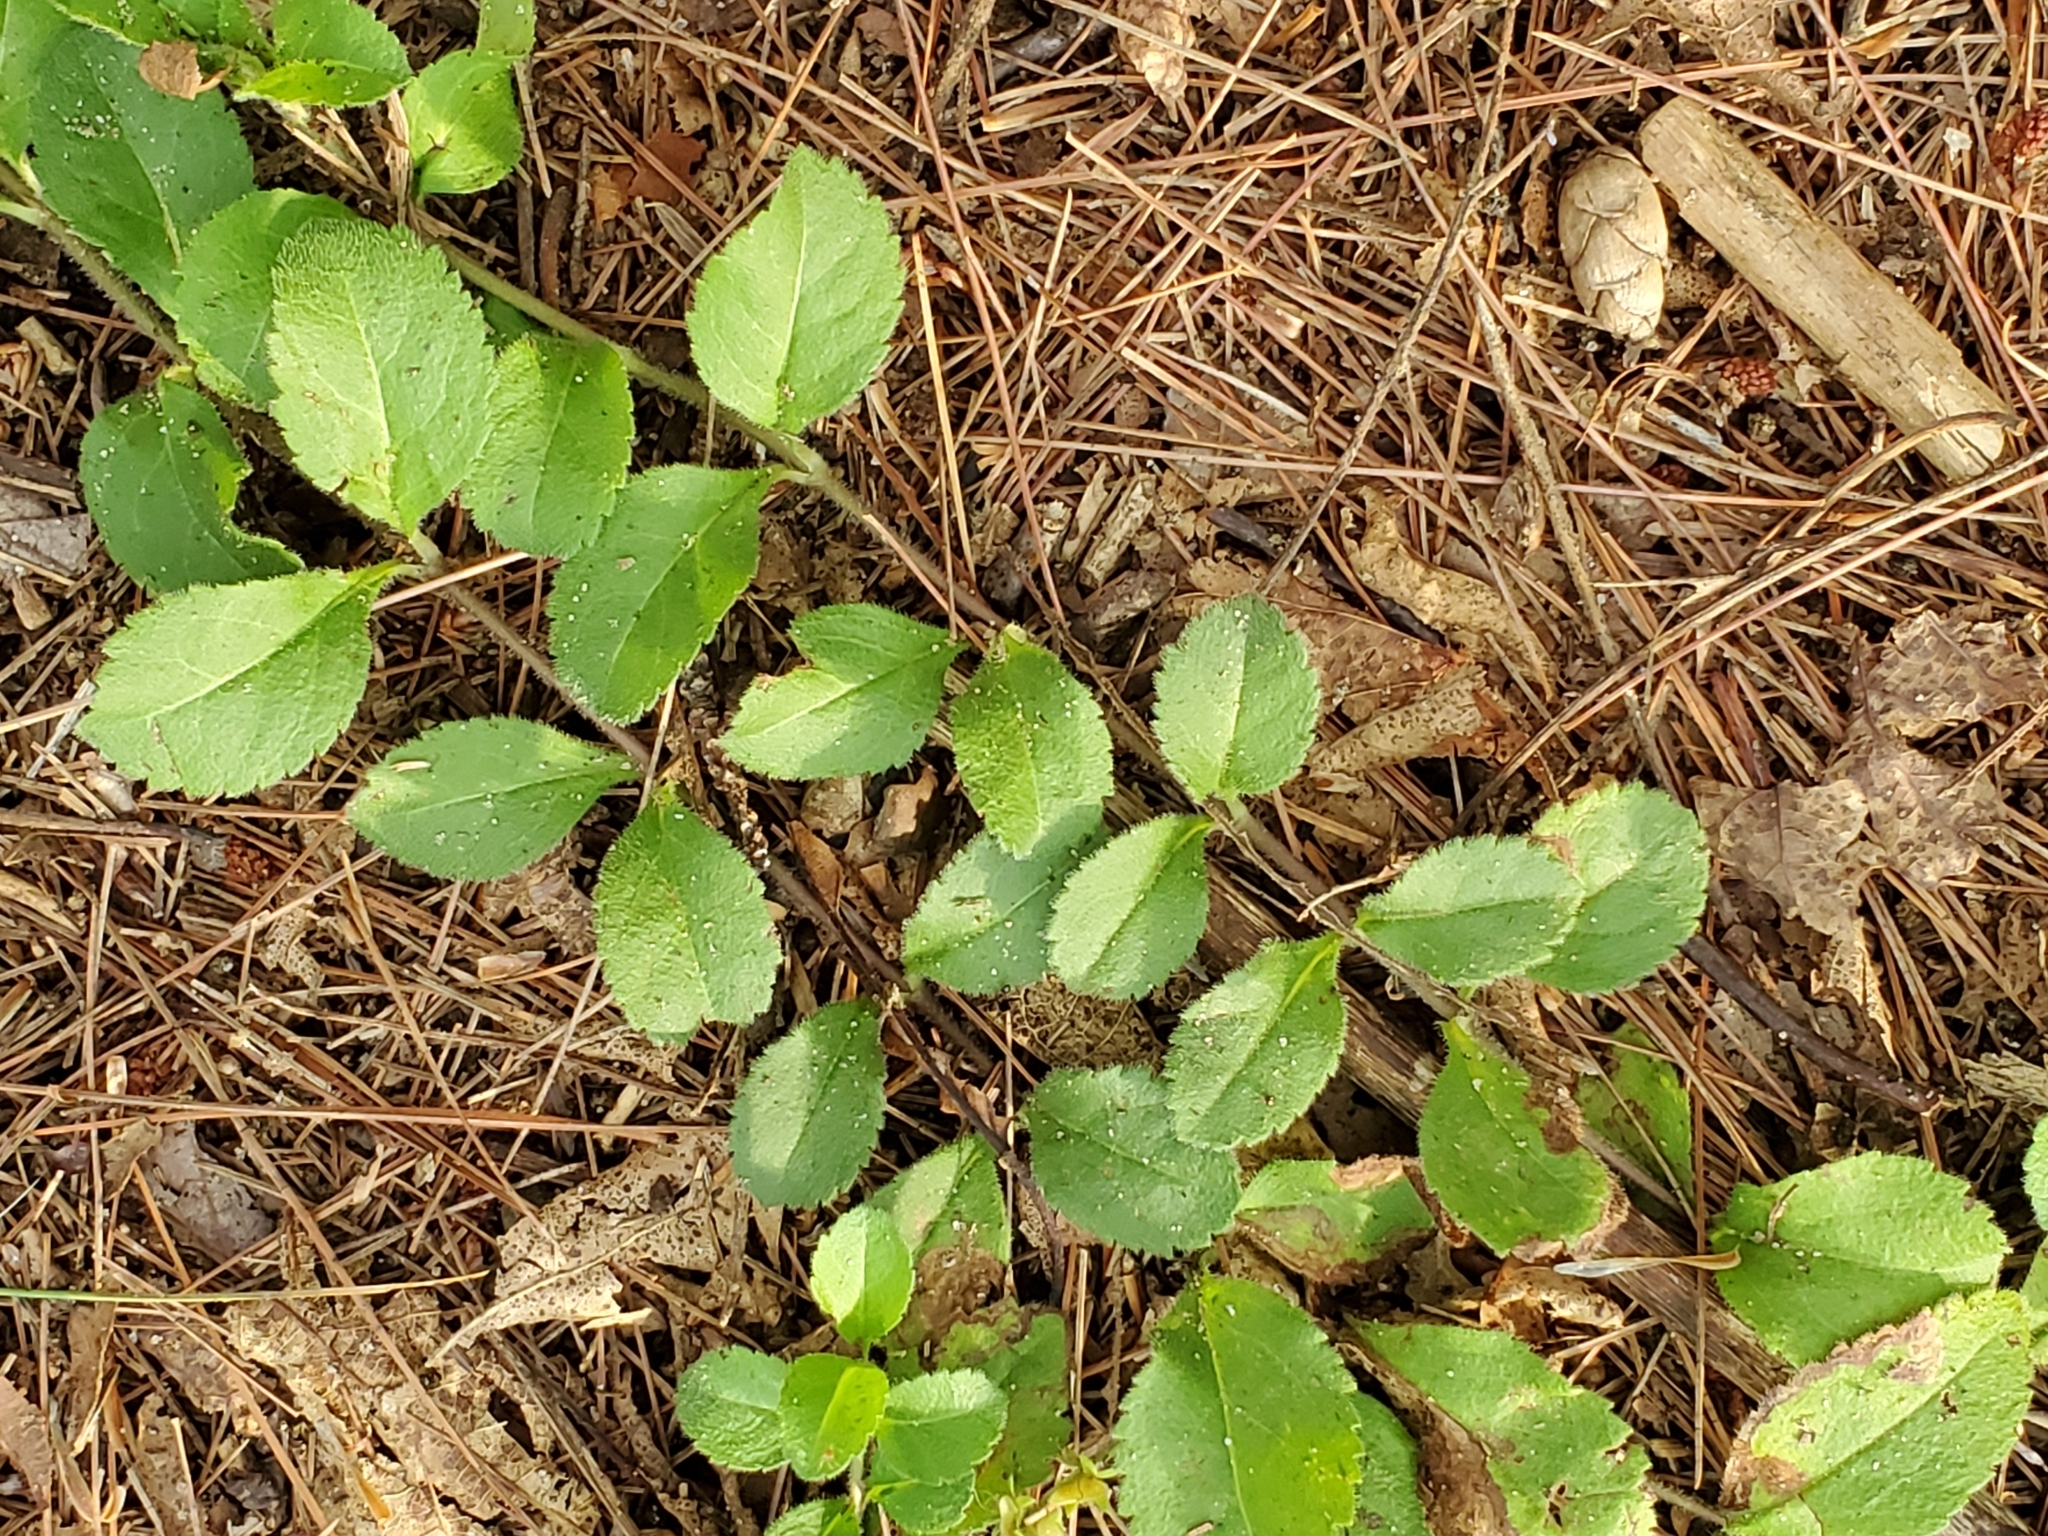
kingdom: Plantae
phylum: Tracheophyta
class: Magnoliopsida
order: Lamiales
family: Plantaginaceae
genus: Veronica
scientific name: Veronica officinalis
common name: Common speedwell
